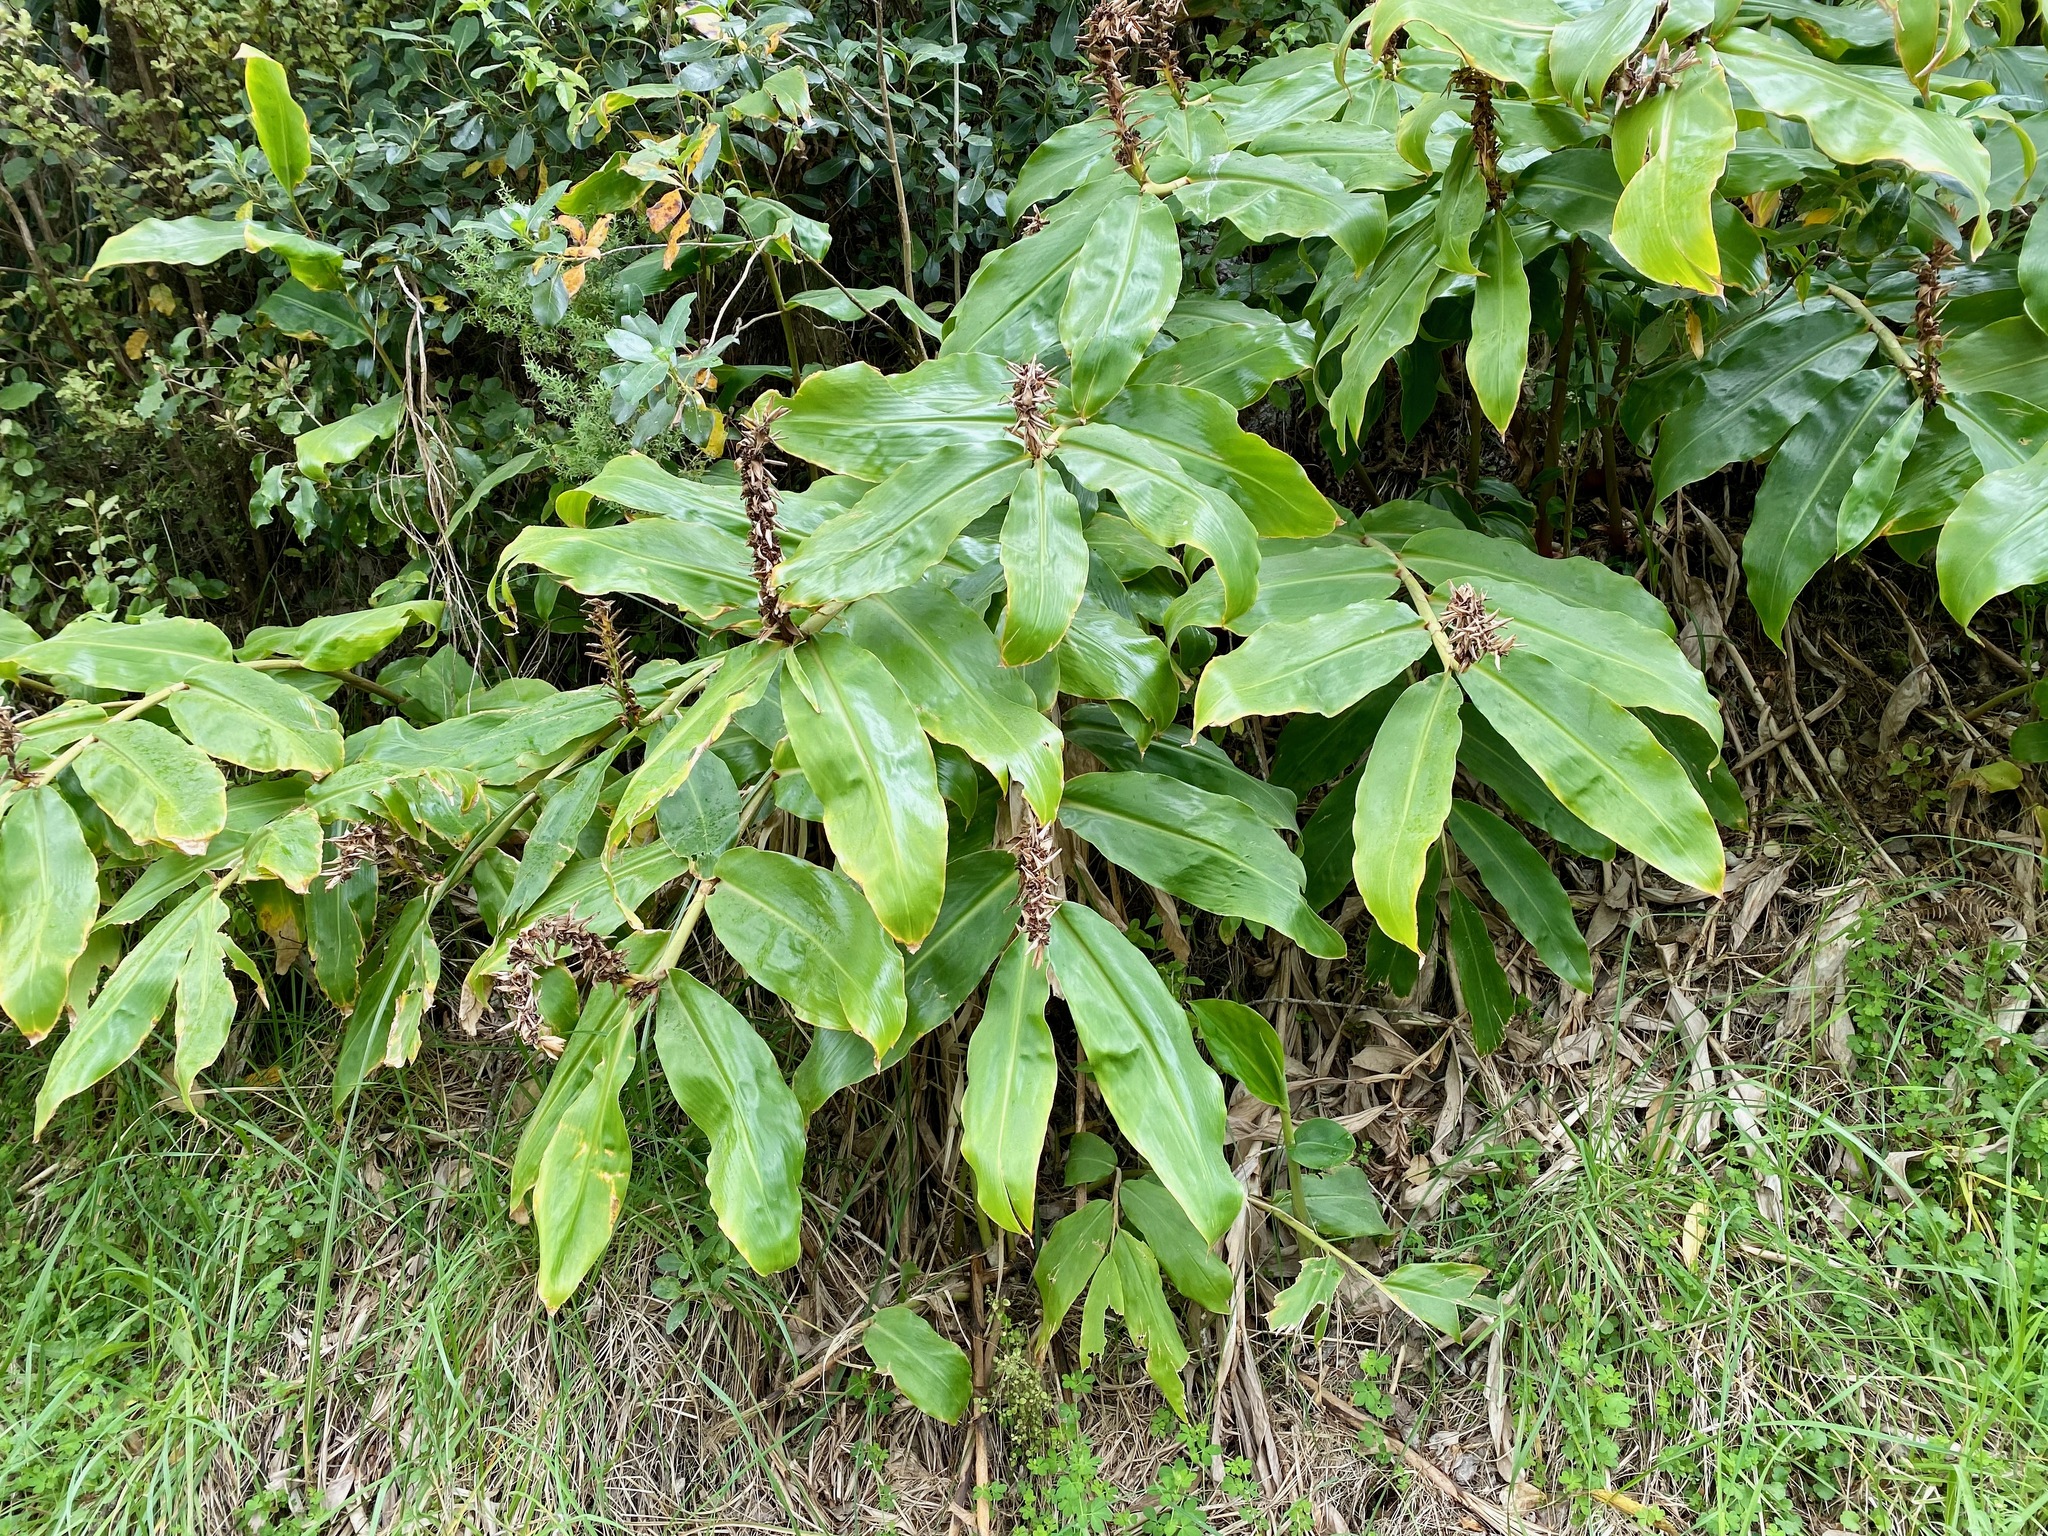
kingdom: Plantae
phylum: Tracheophyta
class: Liliopsida
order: Zingiberales
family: Zingiberaceae
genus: Hedychium
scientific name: Hedychium gardnerianum
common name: Himalayan ginger
